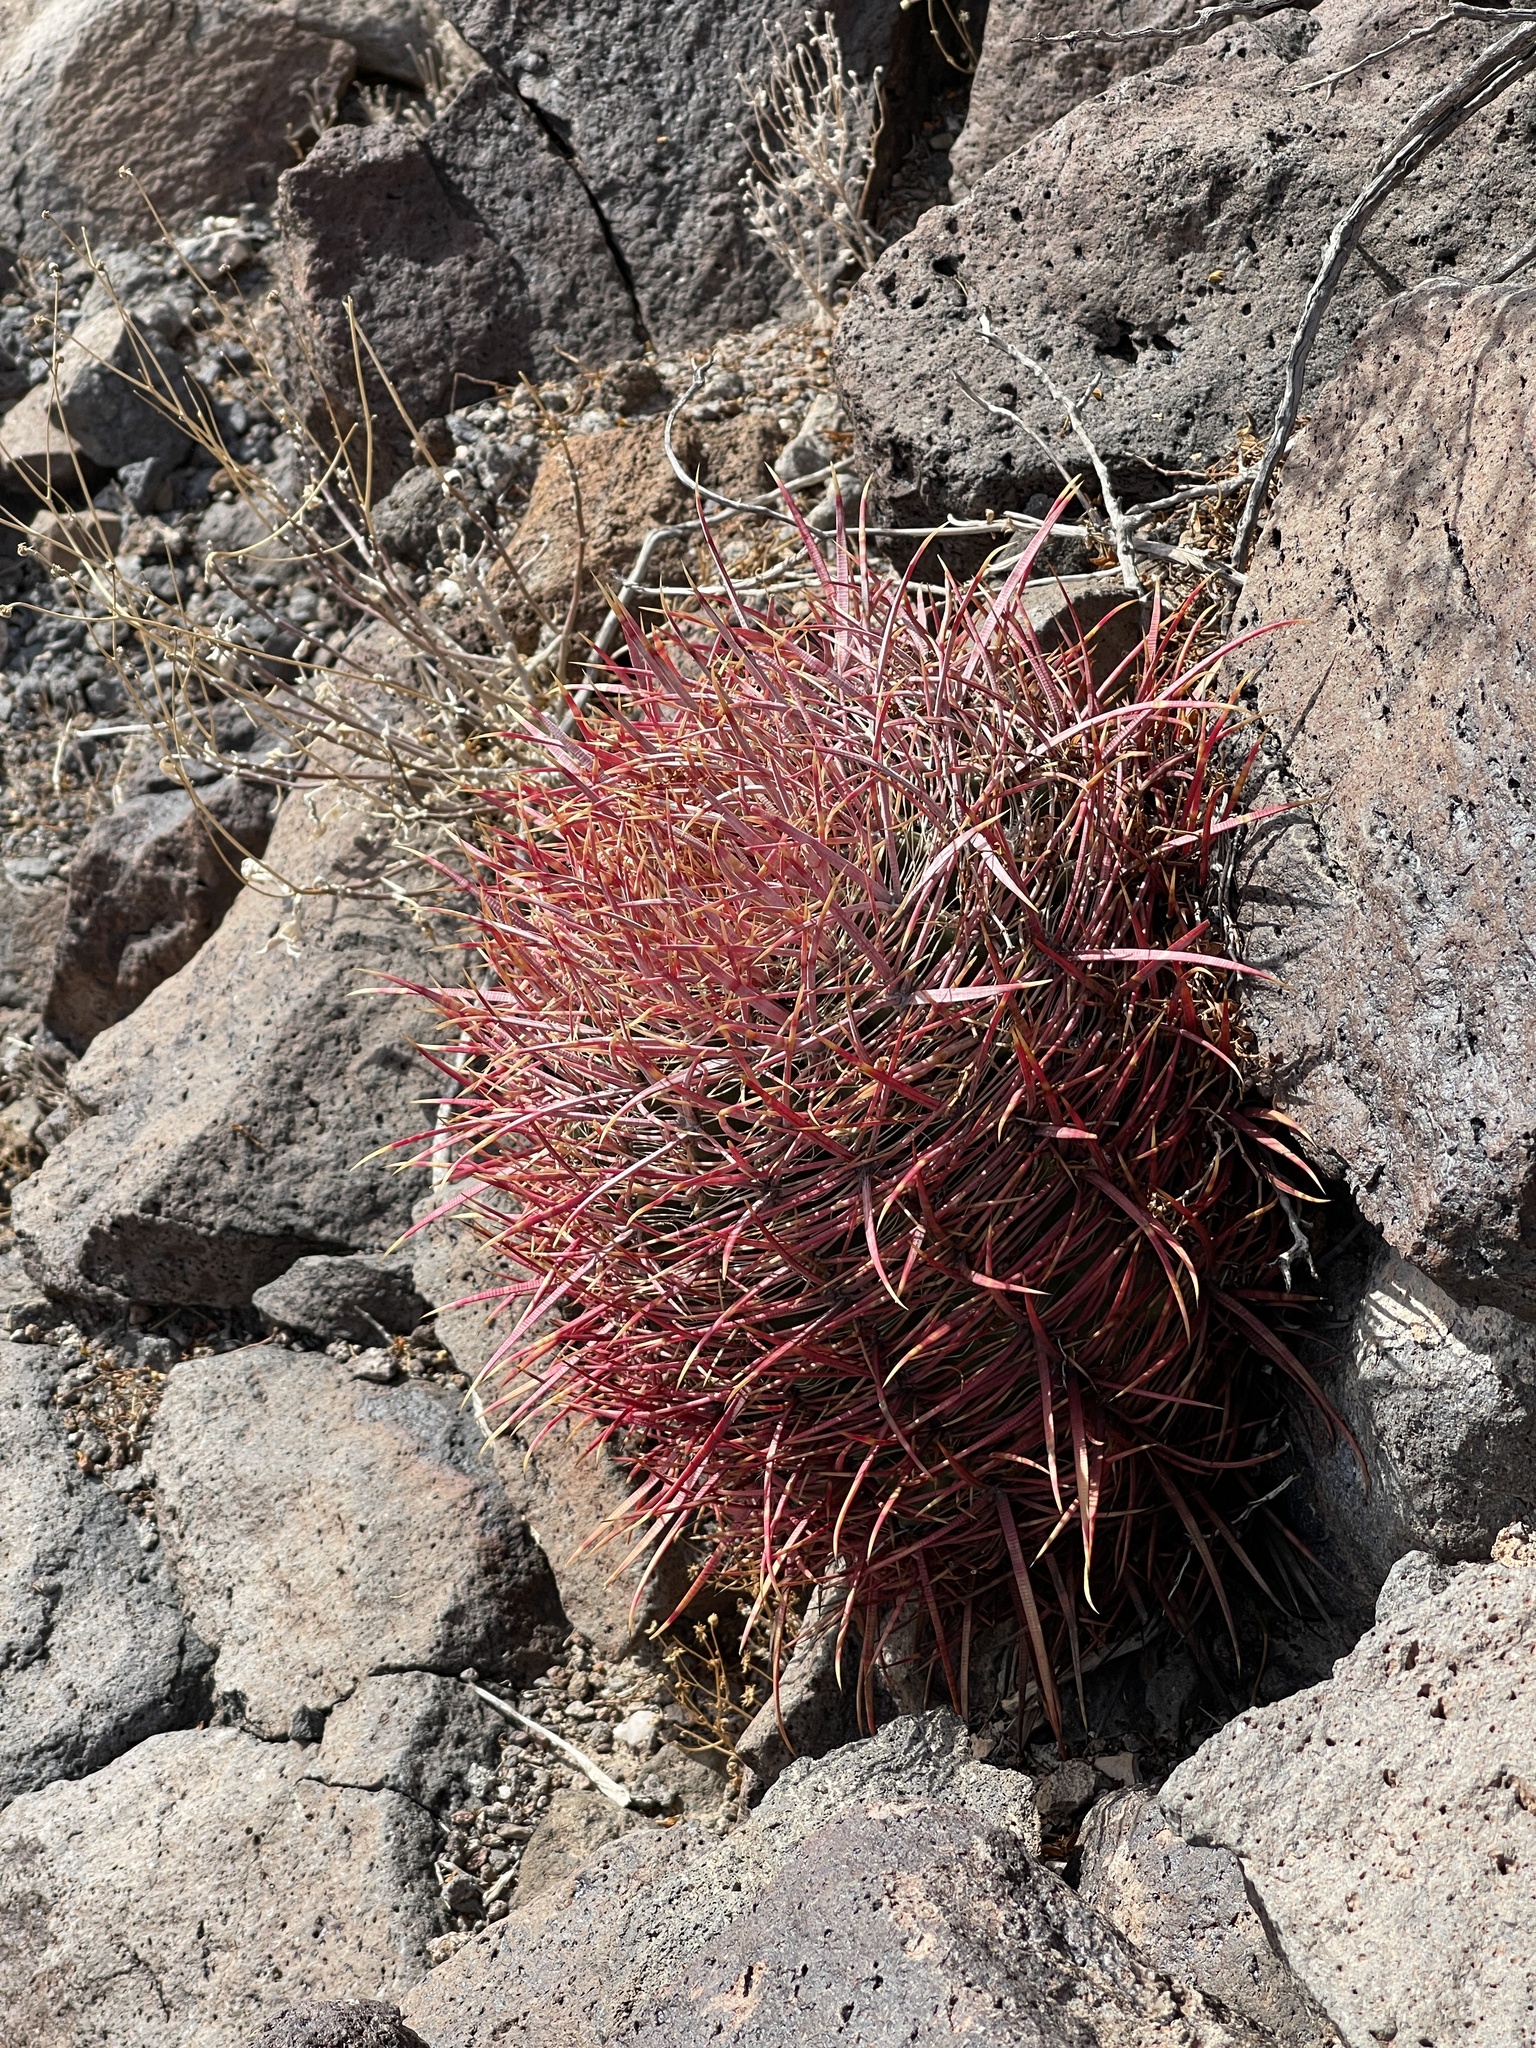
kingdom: Plantae
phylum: Tracheophyta
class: Magnoliopsida
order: Caryophyllales
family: Cactaceae
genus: Ferocactus
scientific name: Ferocactus cylindraceus
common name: California barrel cactus
